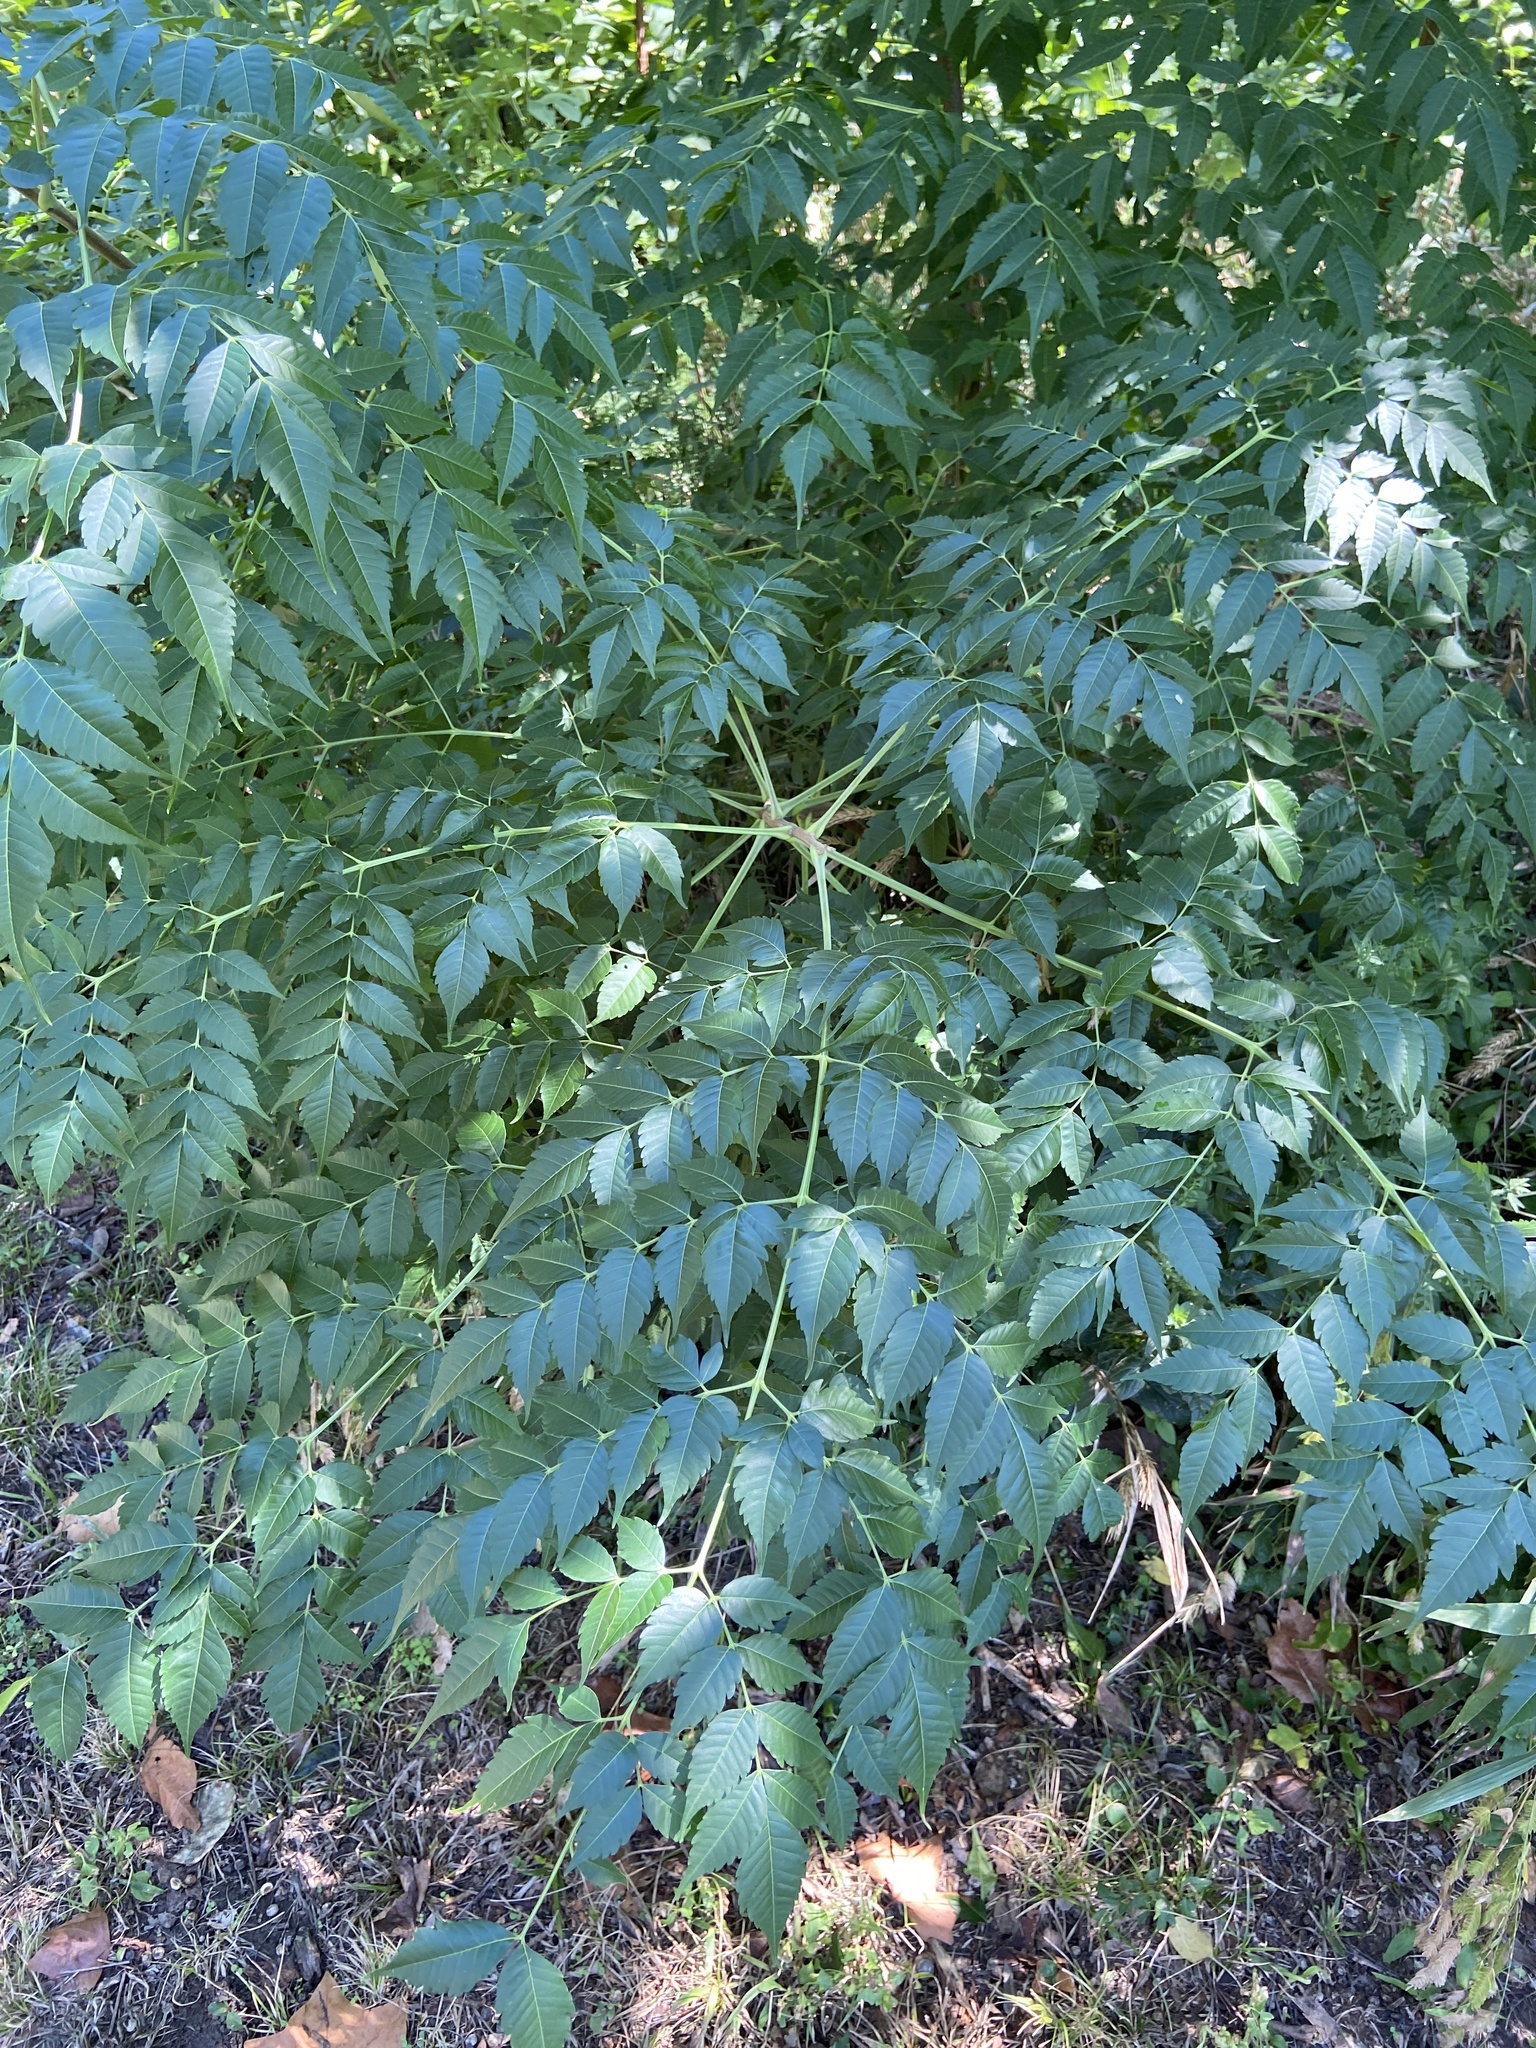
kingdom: Plantae
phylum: Tracheophyta
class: Magnoliopsida
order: Sapindales
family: Meliaceae
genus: Melia
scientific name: Melia azedarach
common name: Chinaberrytree
